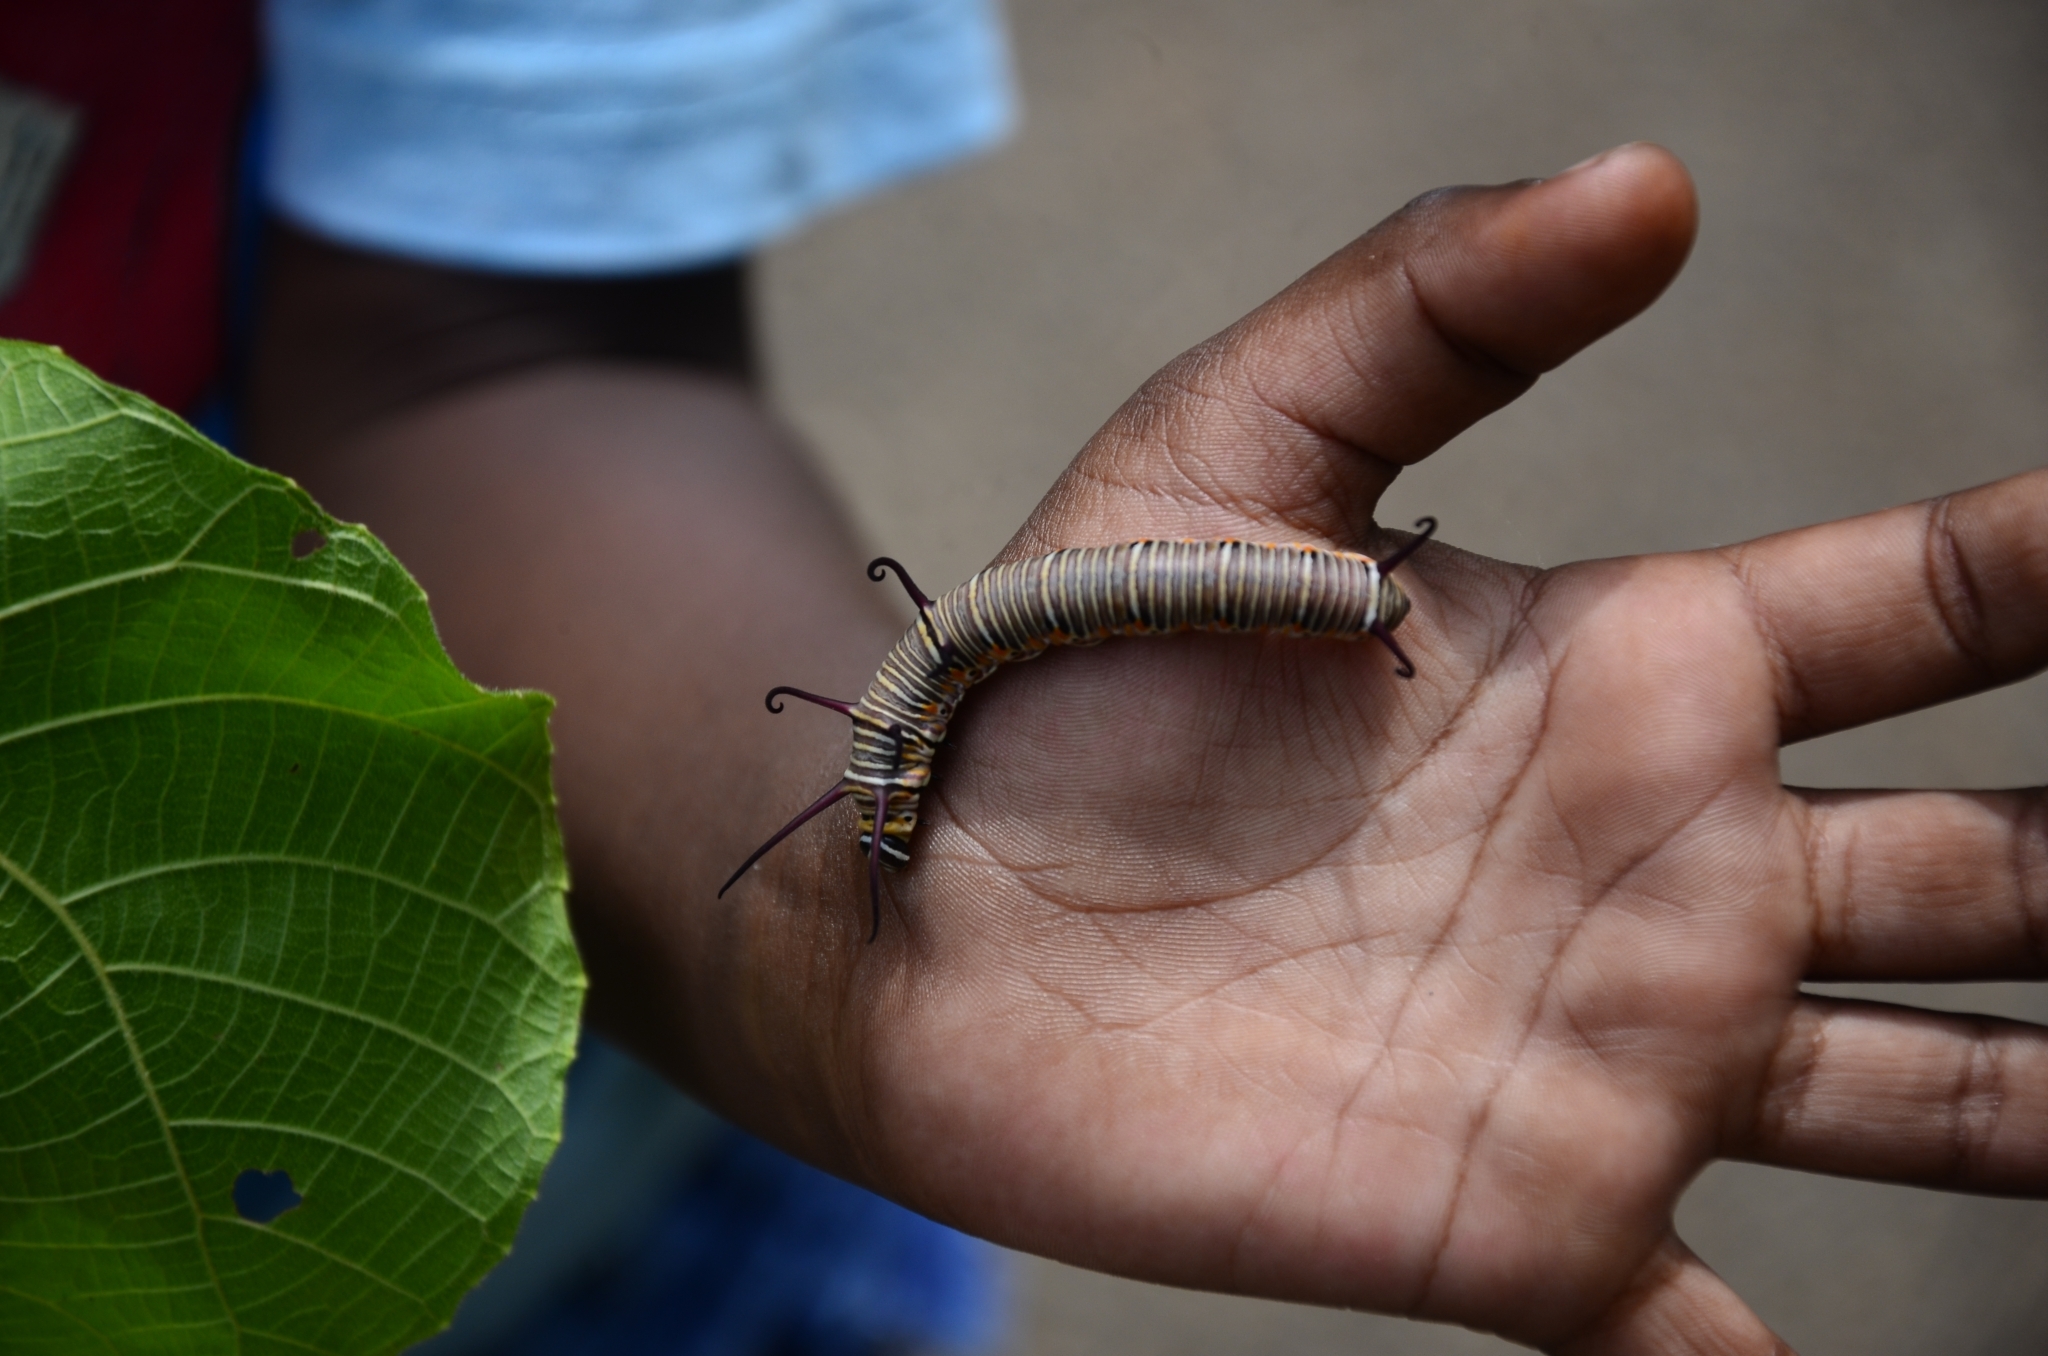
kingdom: Animalia
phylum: Arthropoda
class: Insecta
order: Lepidoptera
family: Nymphalidae
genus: Euploea
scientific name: Euploea core
